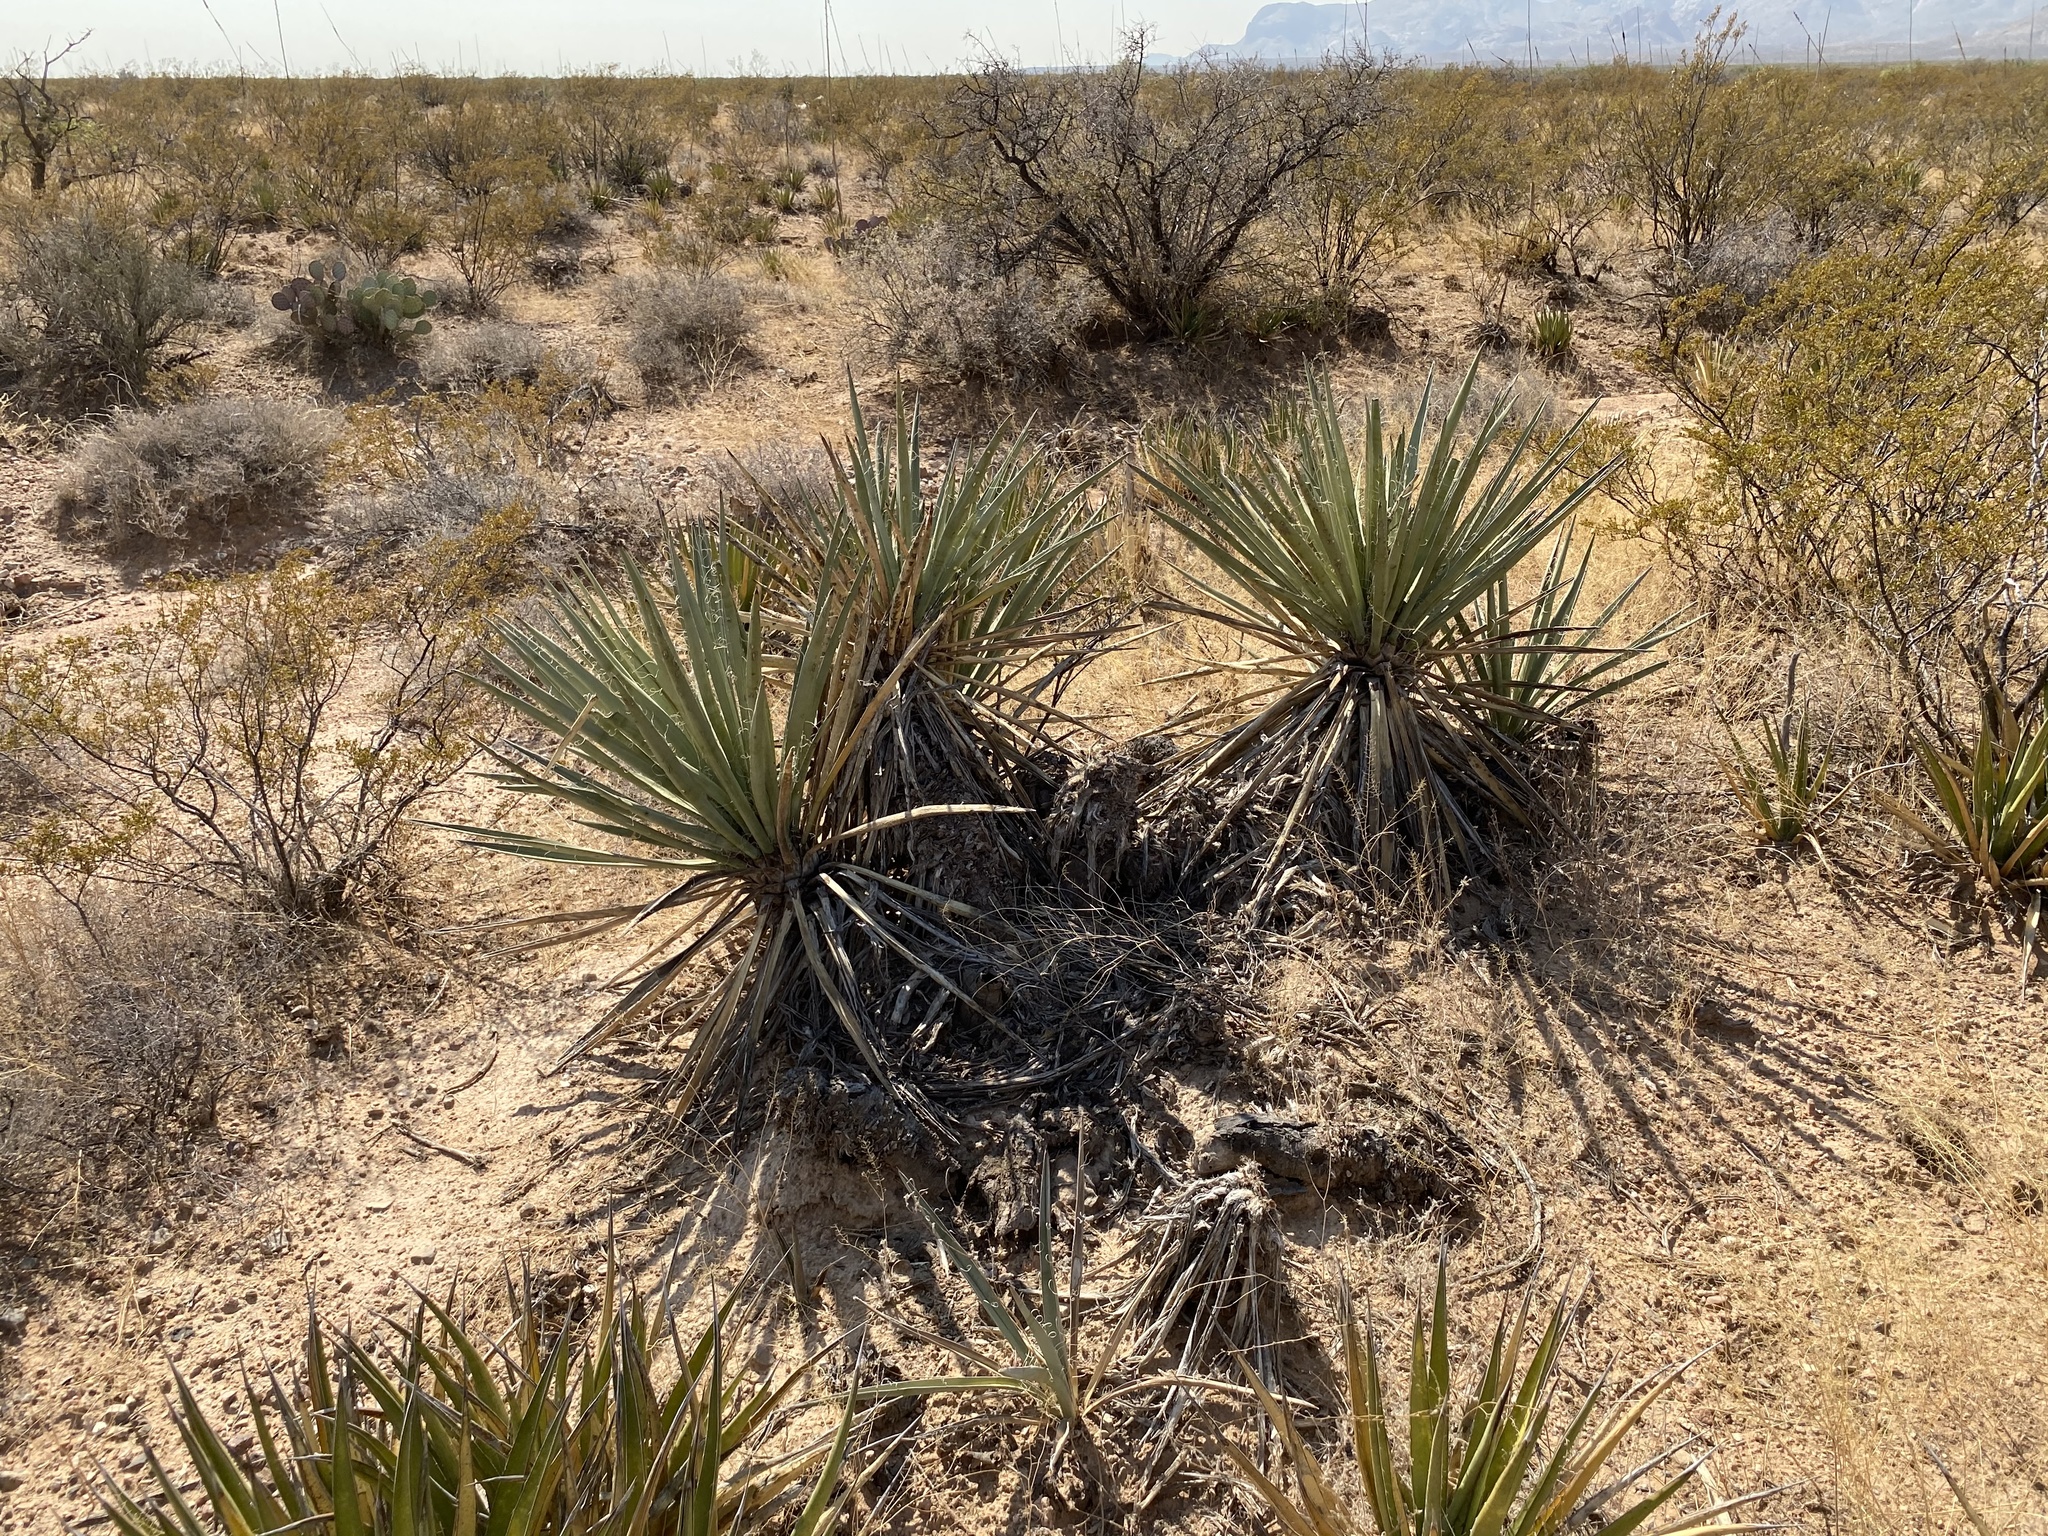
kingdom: Plantae
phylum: Tracheophyta
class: Liliopsida
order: Asparagales
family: Asparagaceae
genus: Yucca
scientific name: Yucca baccata
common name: Banana yucca
